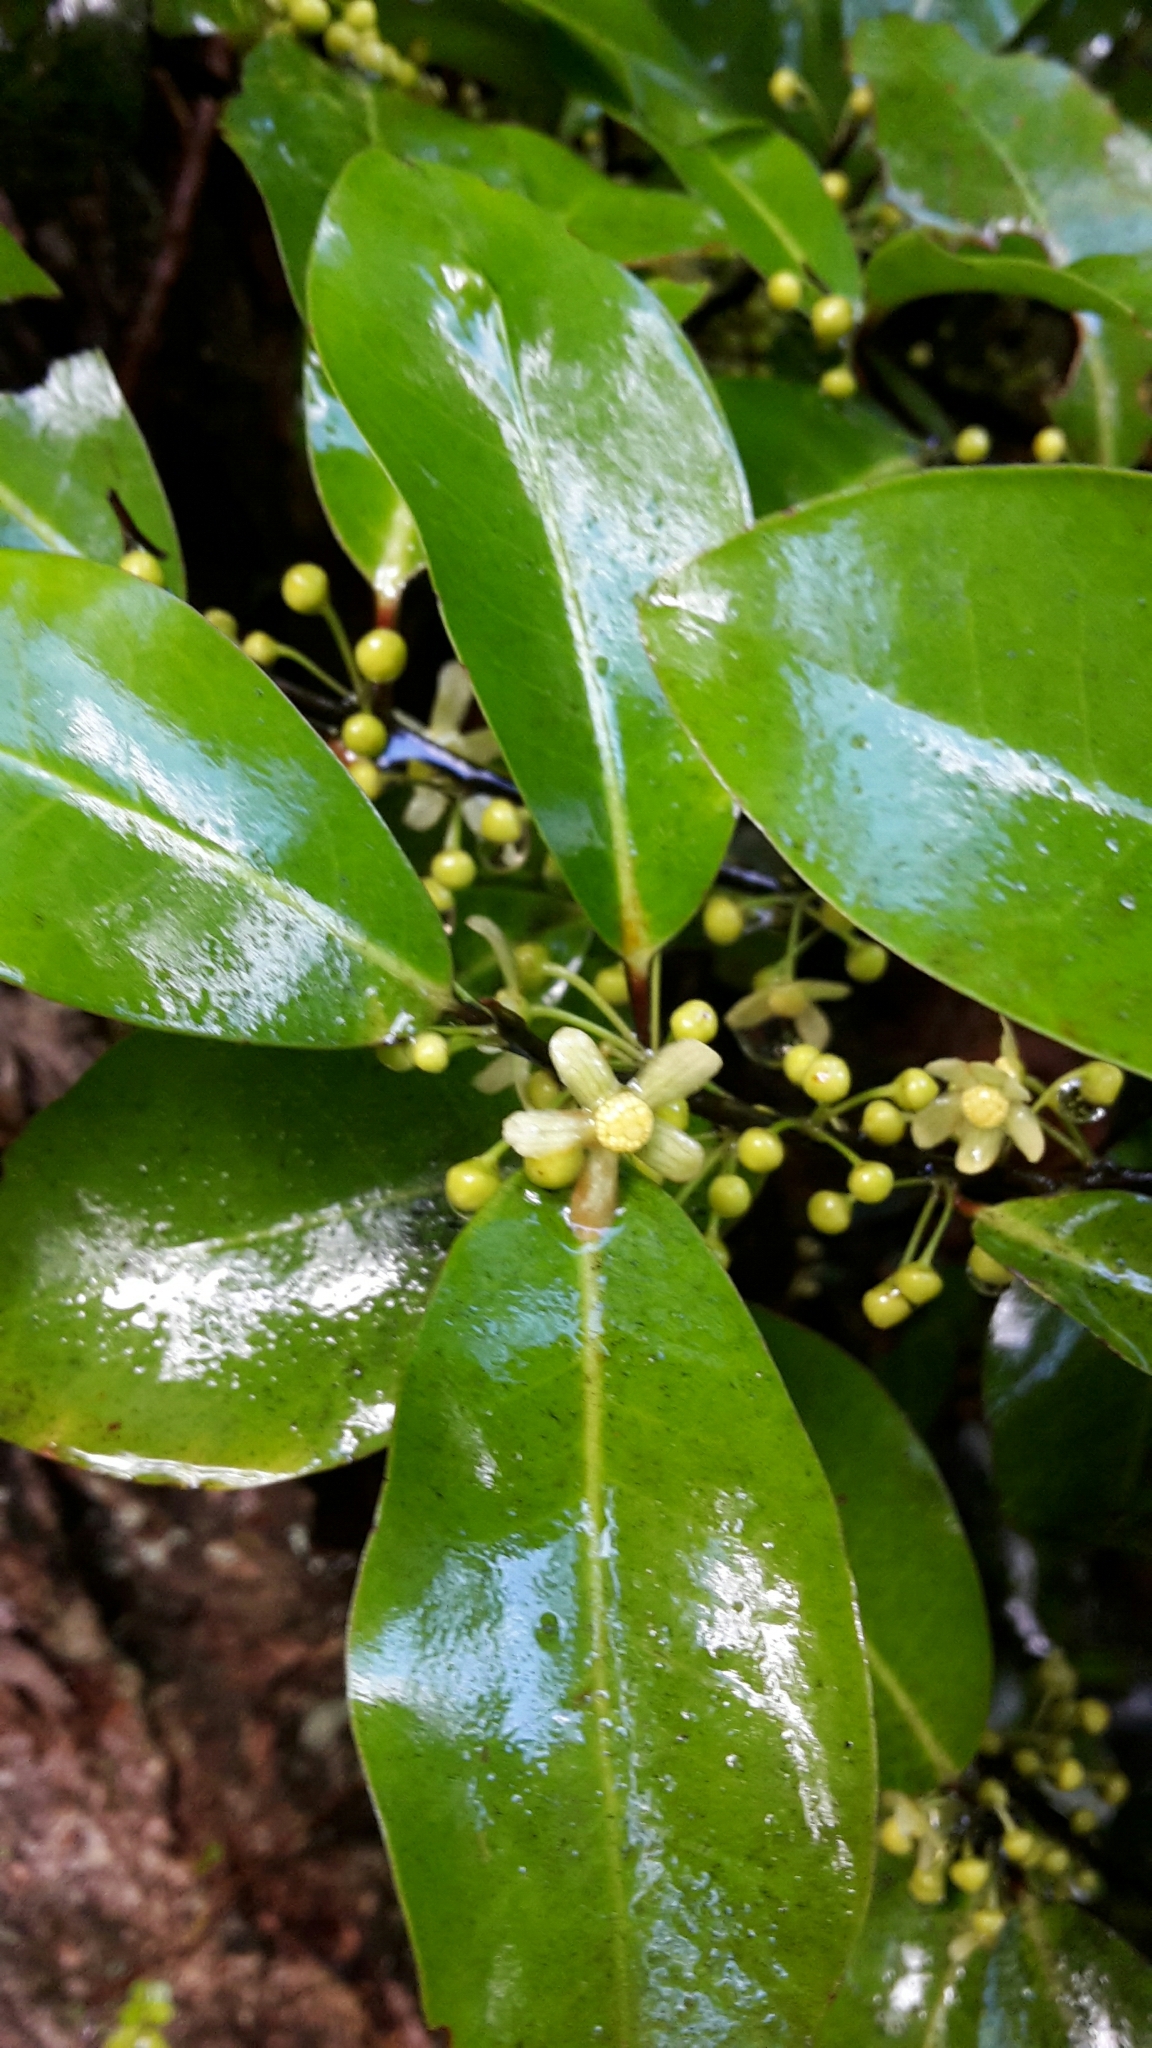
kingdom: Plantae
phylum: Tracheophyta
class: Magnoliopsida
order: Canellales
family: Winteraceae
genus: Pseudowintera
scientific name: Pseudowintera axillaris
